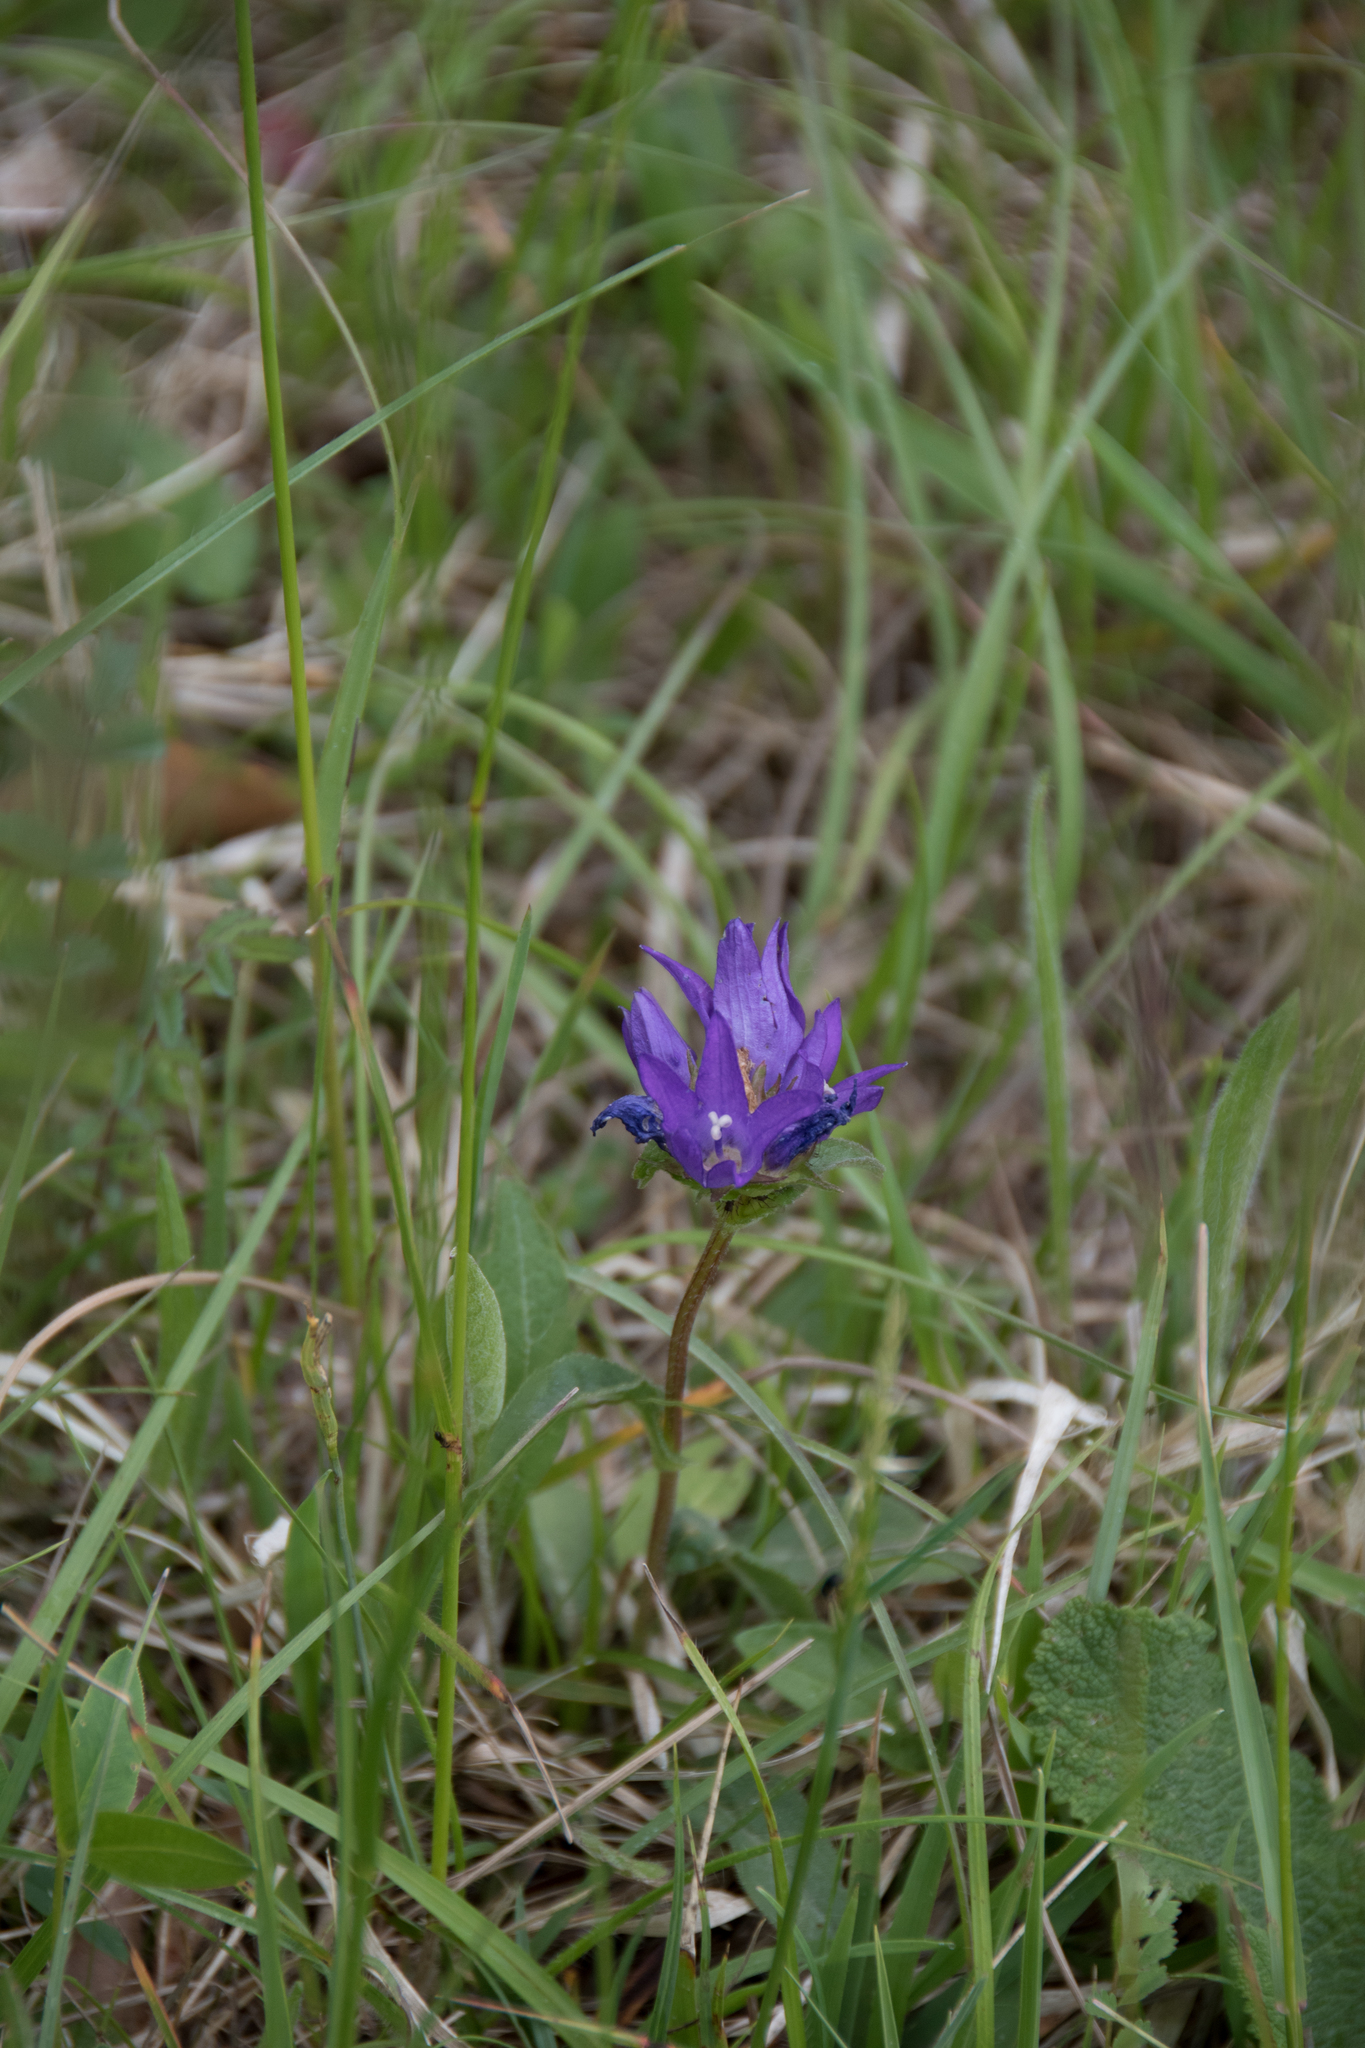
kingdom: Plantae
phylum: Tracheophyta
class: Magnoliopsida
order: Asterales
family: Campanulaceae
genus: Campanula
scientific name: Campanula glomerata
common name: Clustered bellflower
